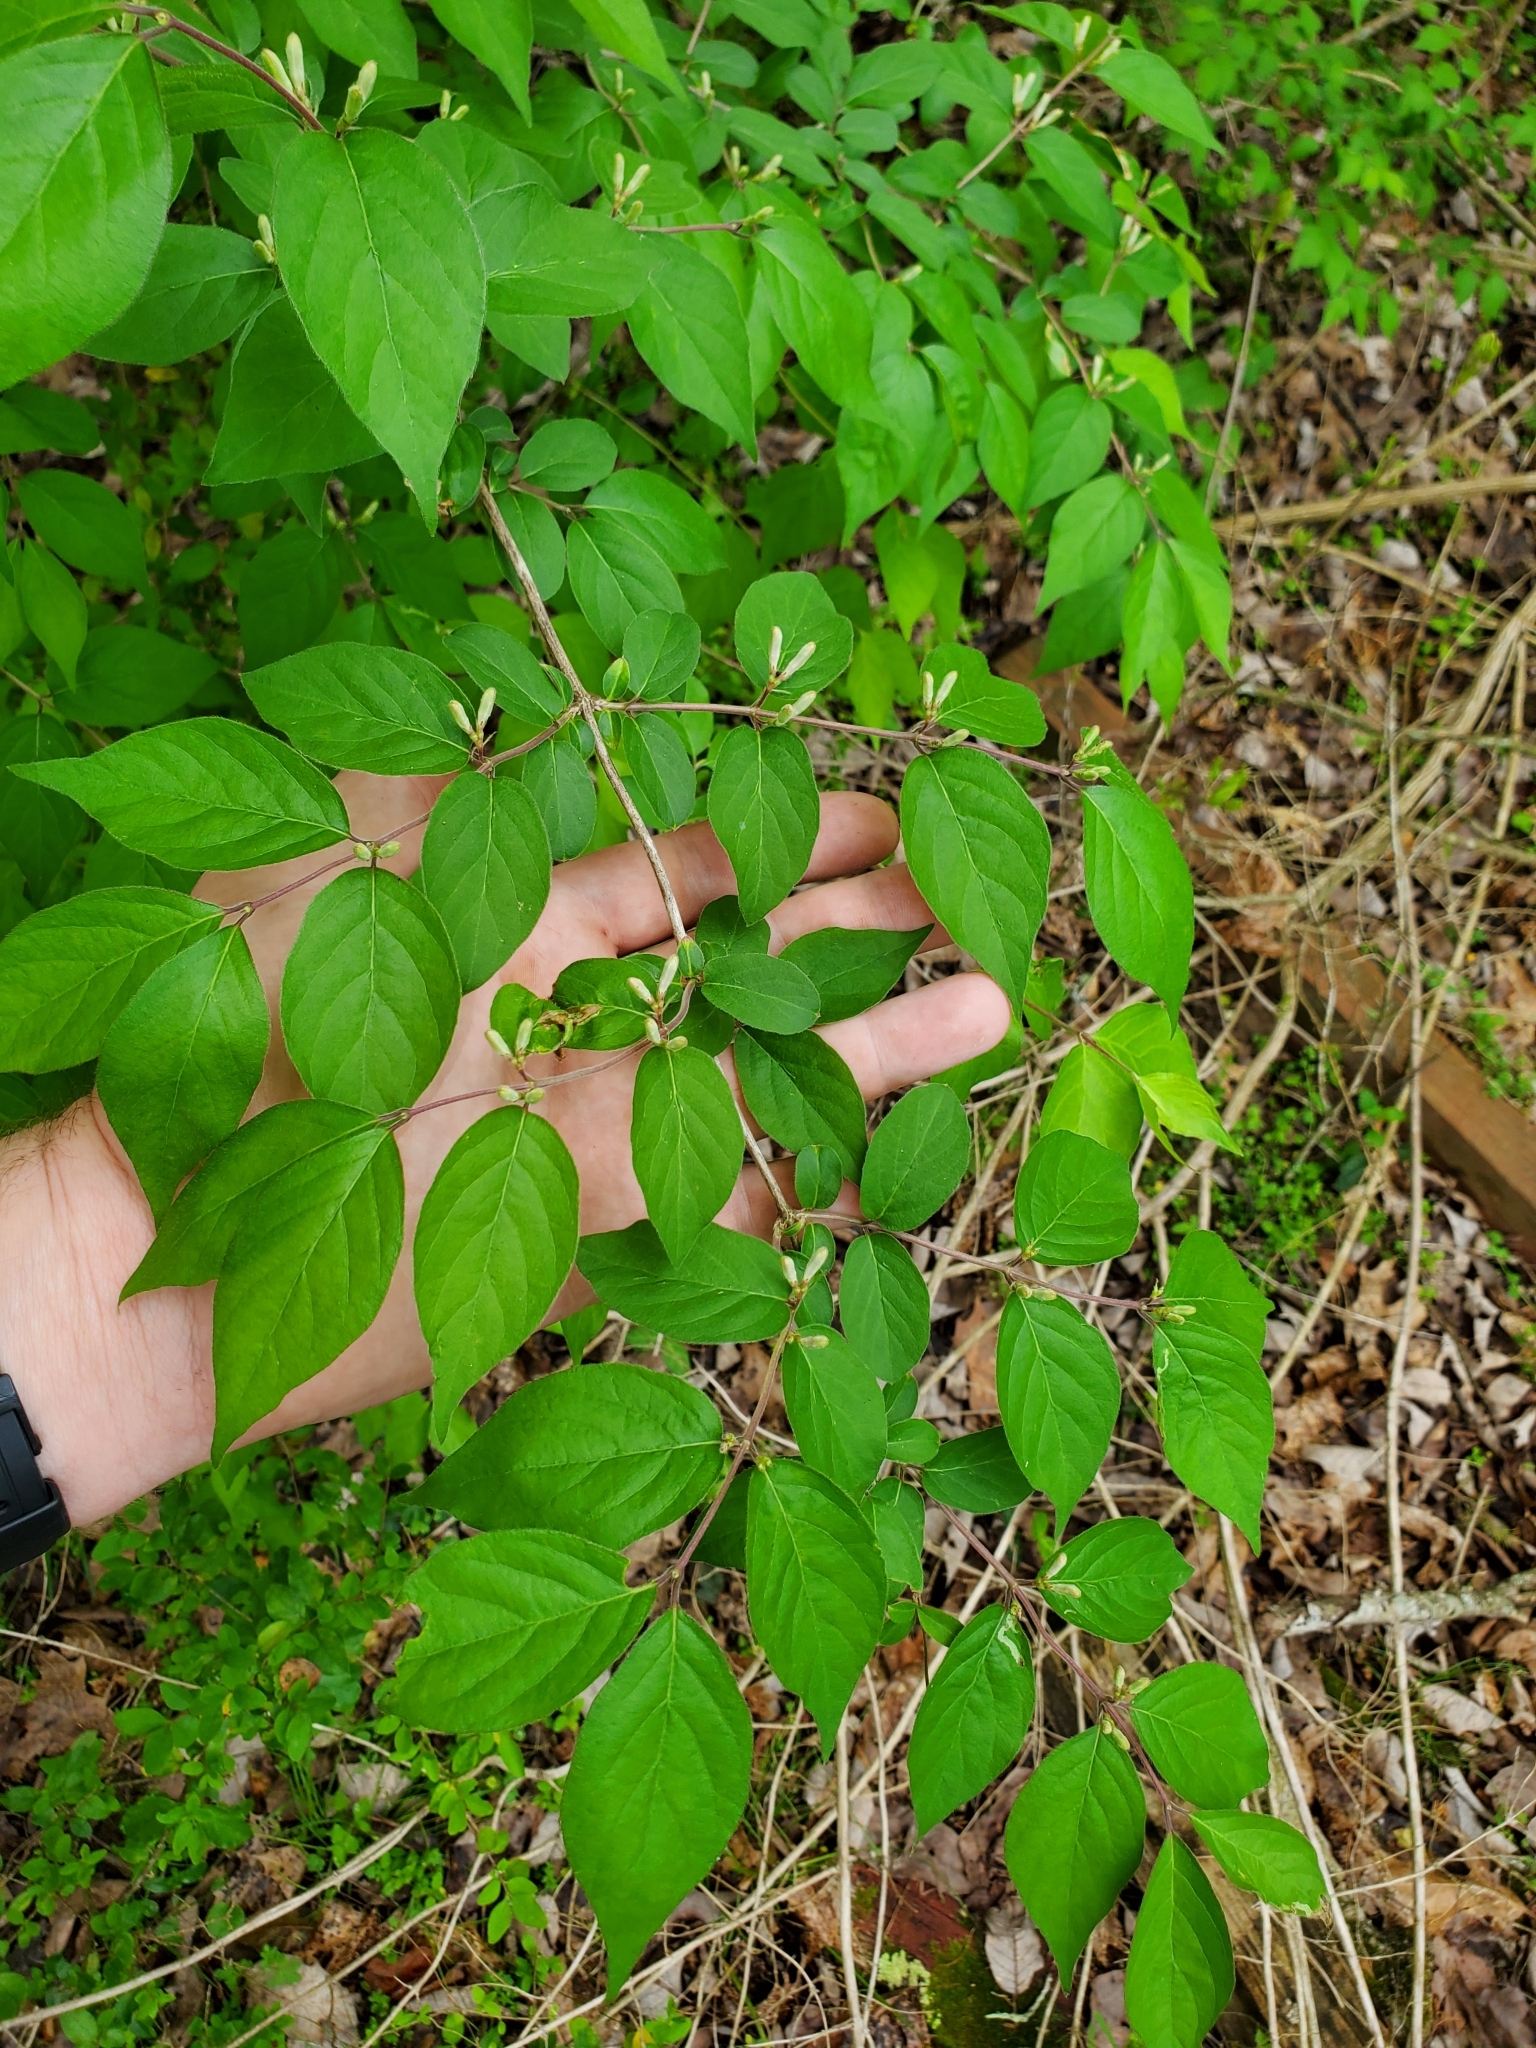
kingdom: Plantae
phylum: Tracheophyta
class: Magnoliopsida
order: Dipsacales
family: Caprifoliaceae
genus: Lonicera
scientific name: Lonicera maackii
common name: Amur honeysuckle
